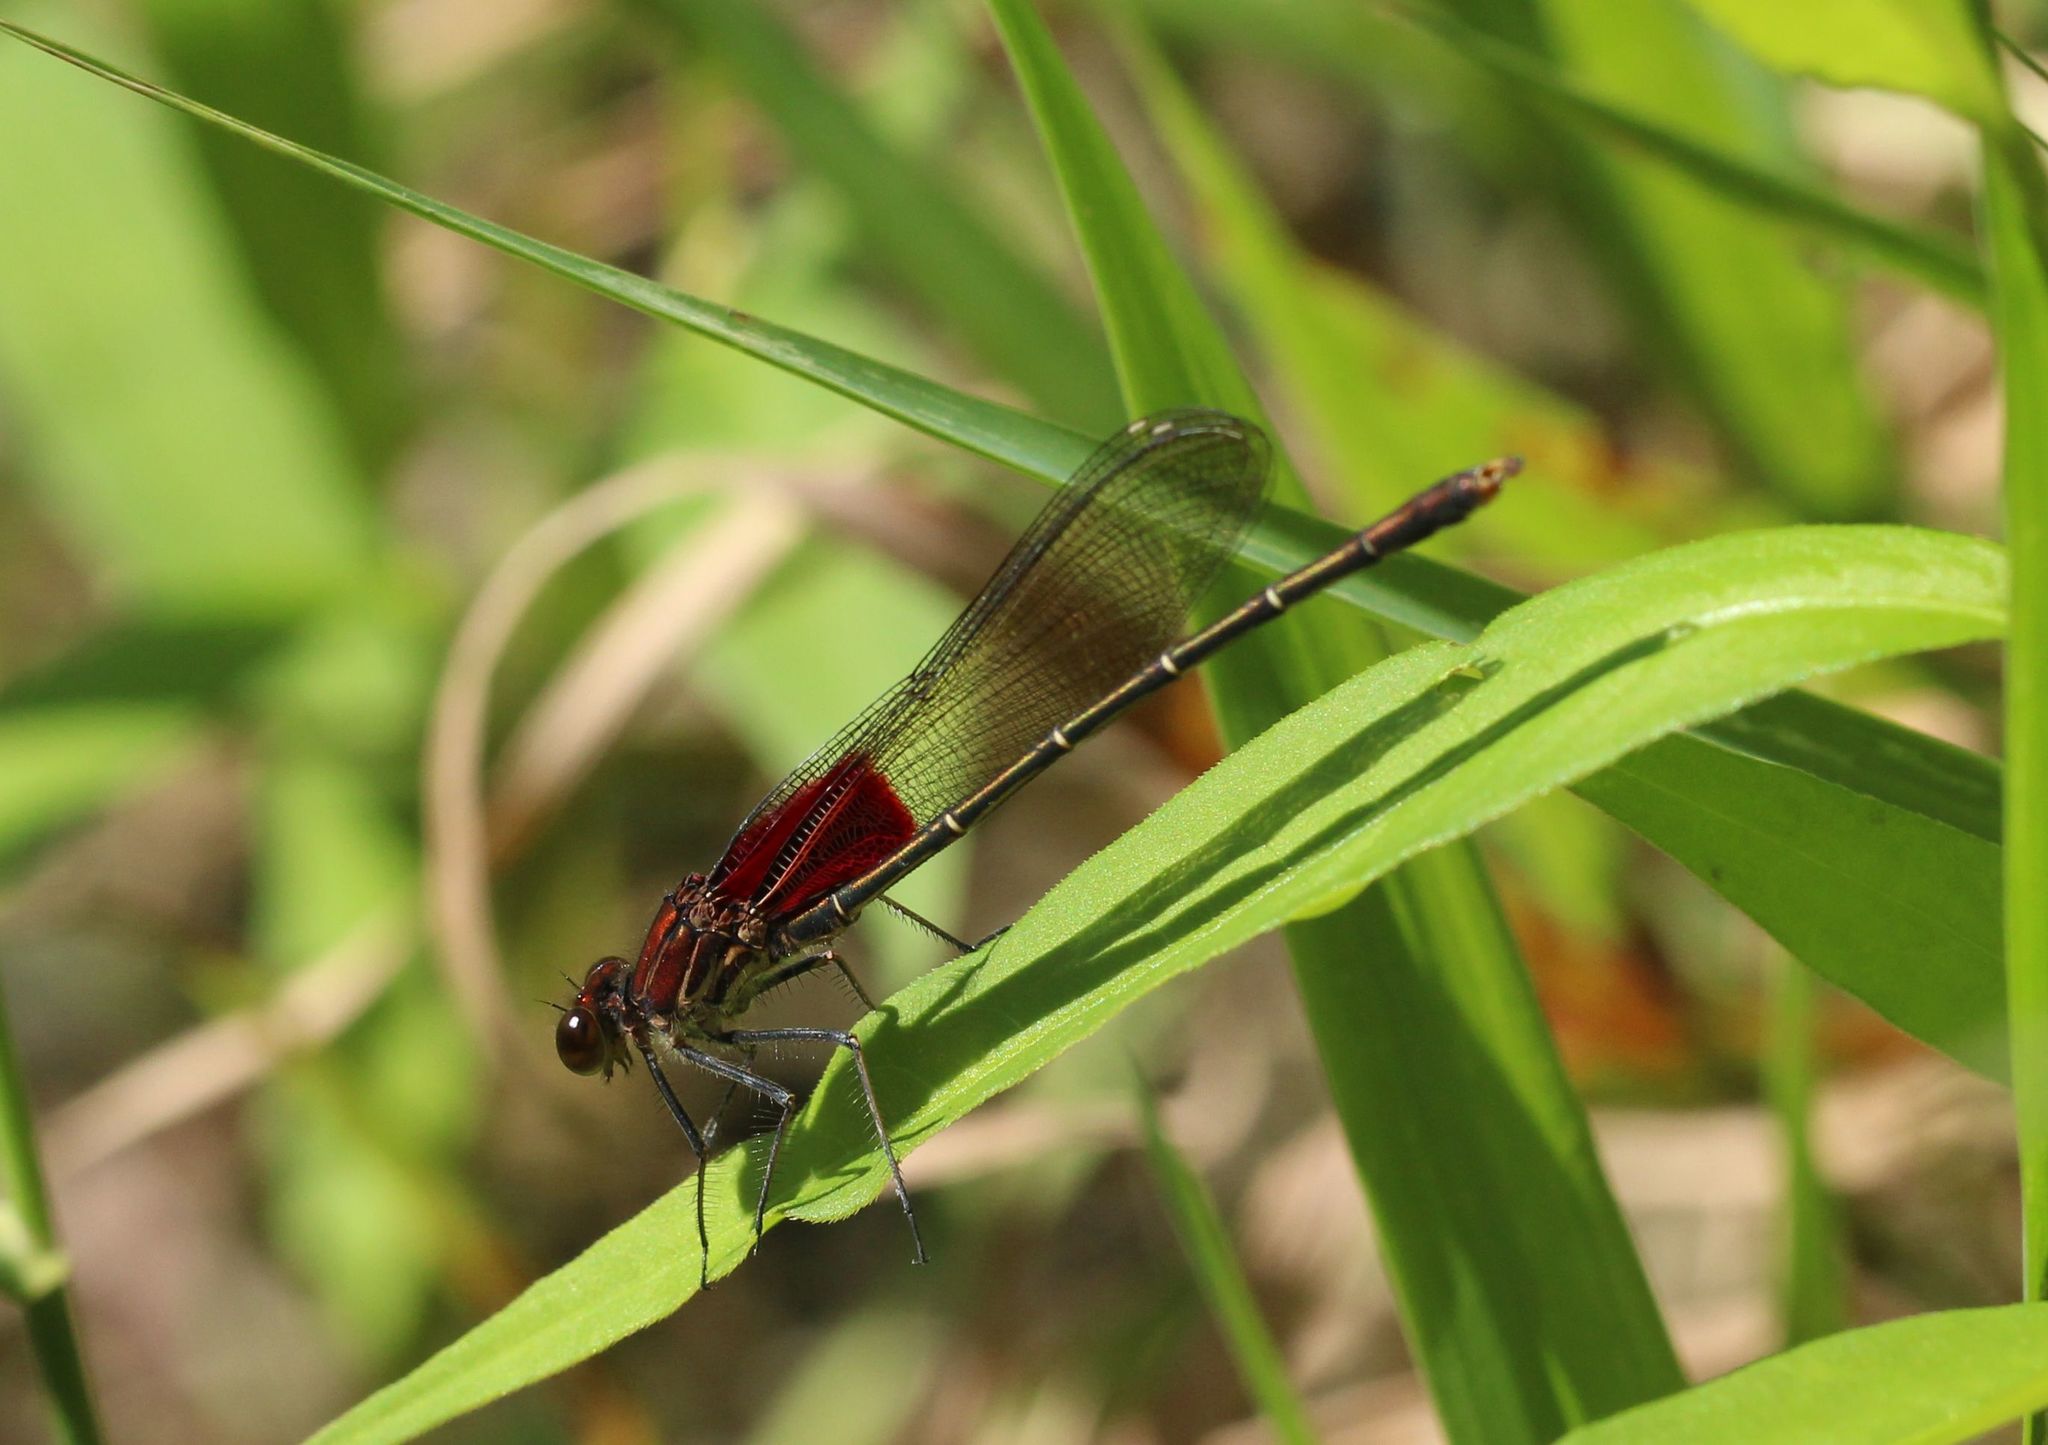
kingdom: Animalia
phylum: Arthropoda
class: Insecta
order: Odonata
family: Calopterygidae
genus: Hetaerina
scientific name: Hetaerina americana
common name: American rubyspot
